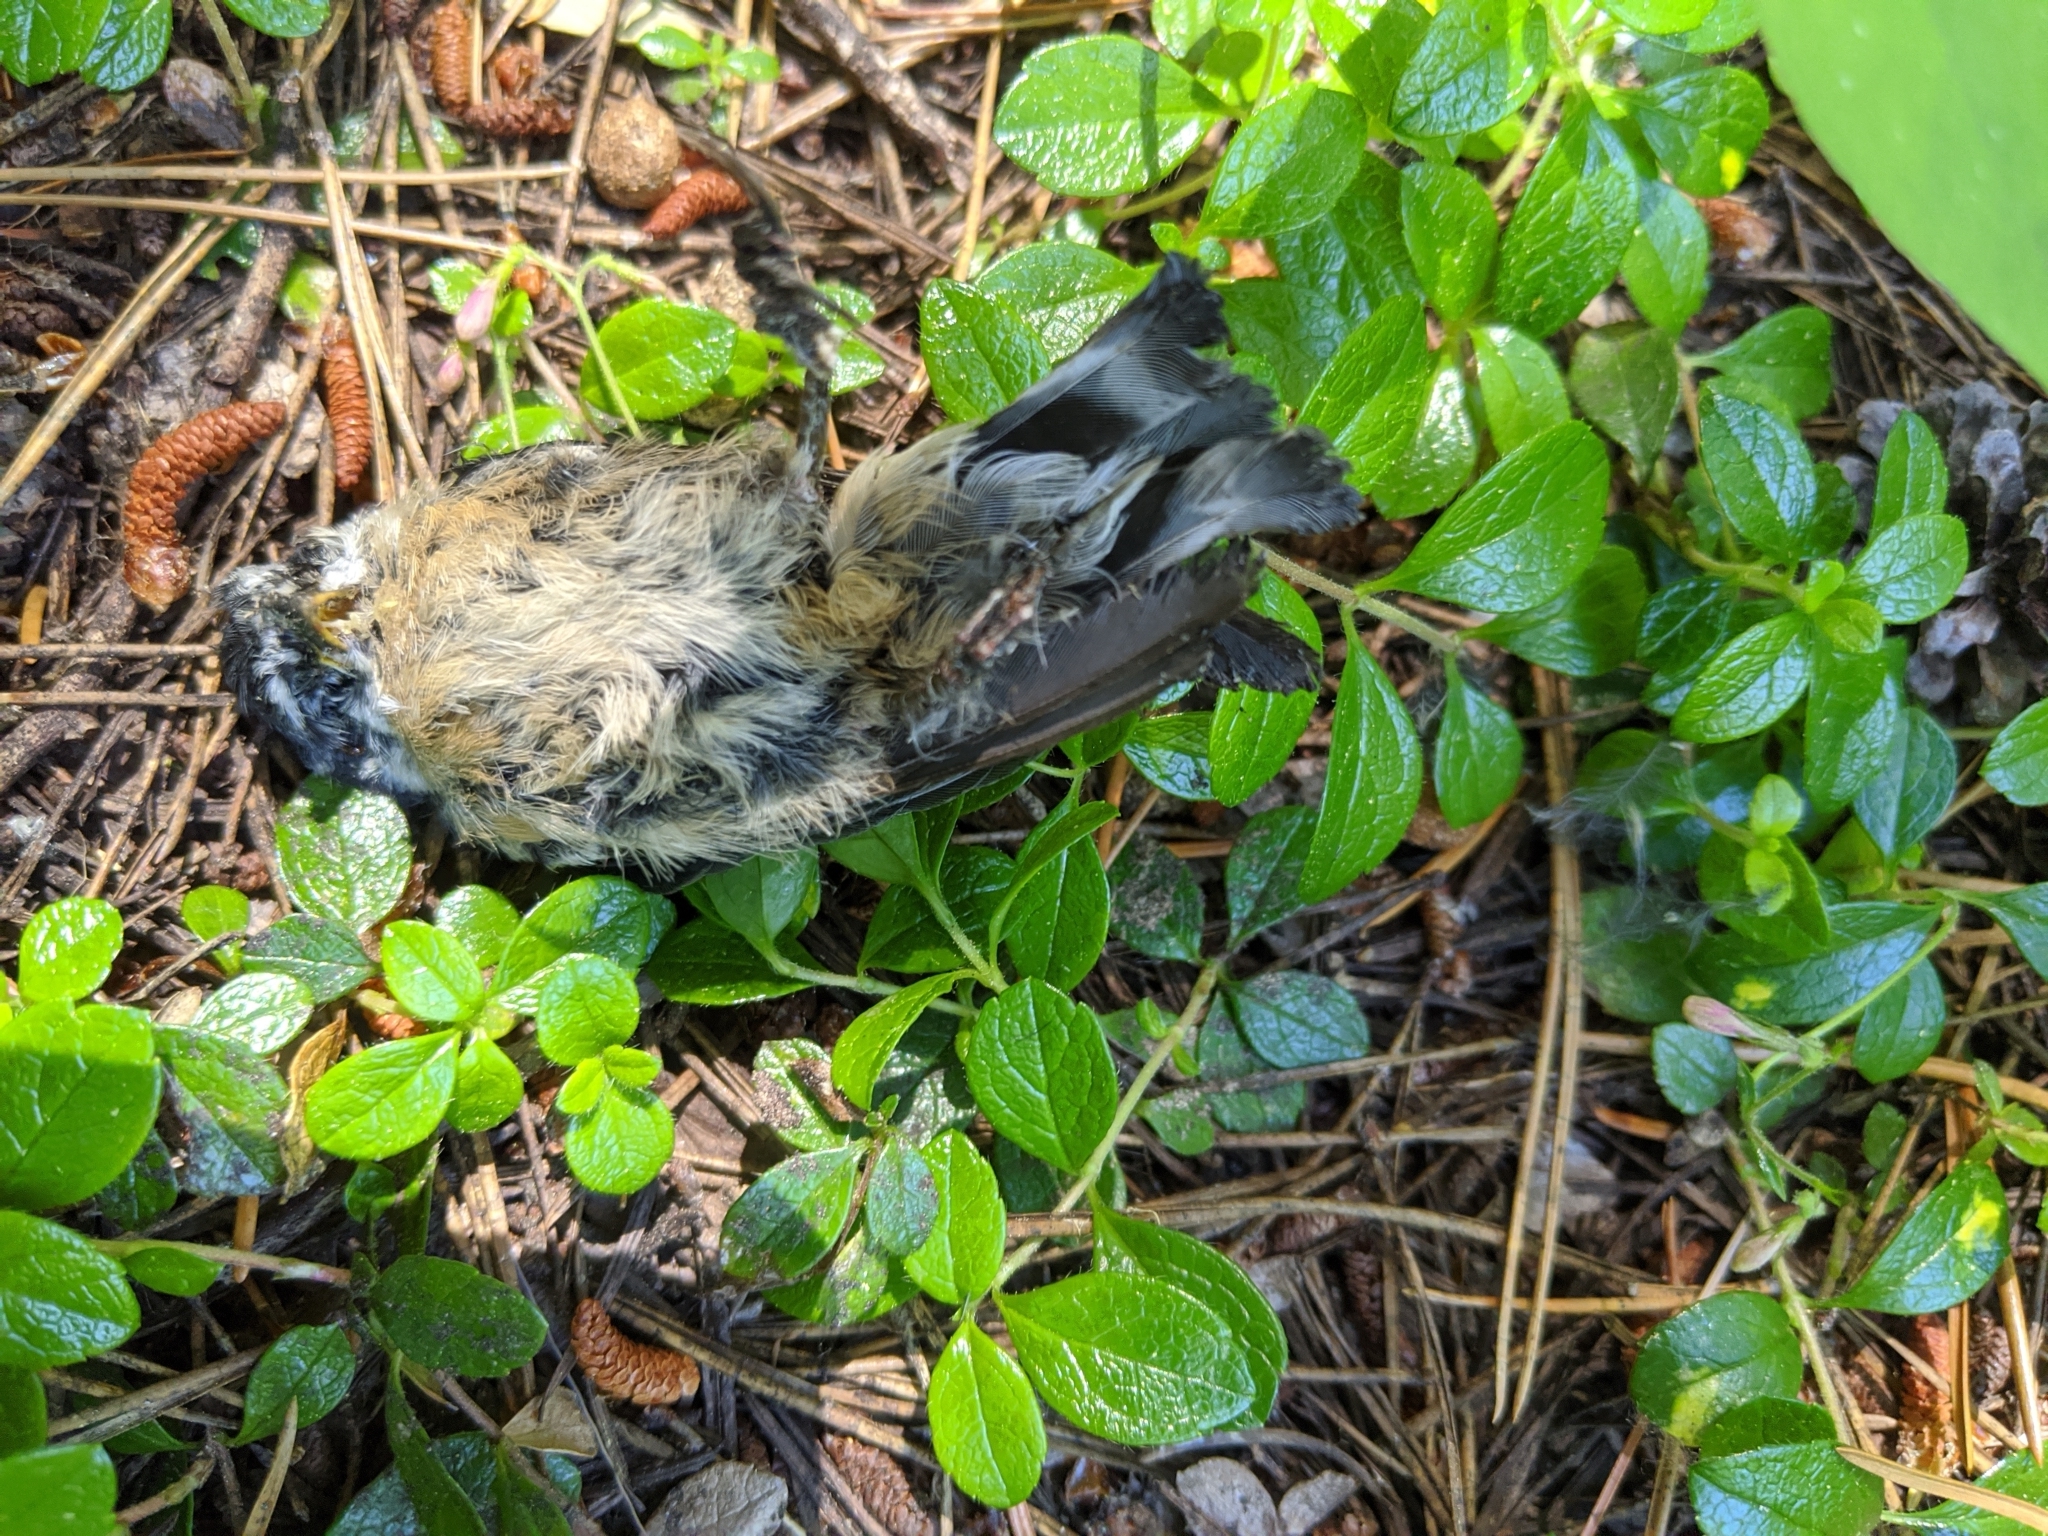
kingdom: Animalia
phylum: Chordata
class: Aves
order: Passeriformes
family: Sittidae
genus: Sitta
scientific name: Sitta canadensis
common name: Red-breasted nuthatch
